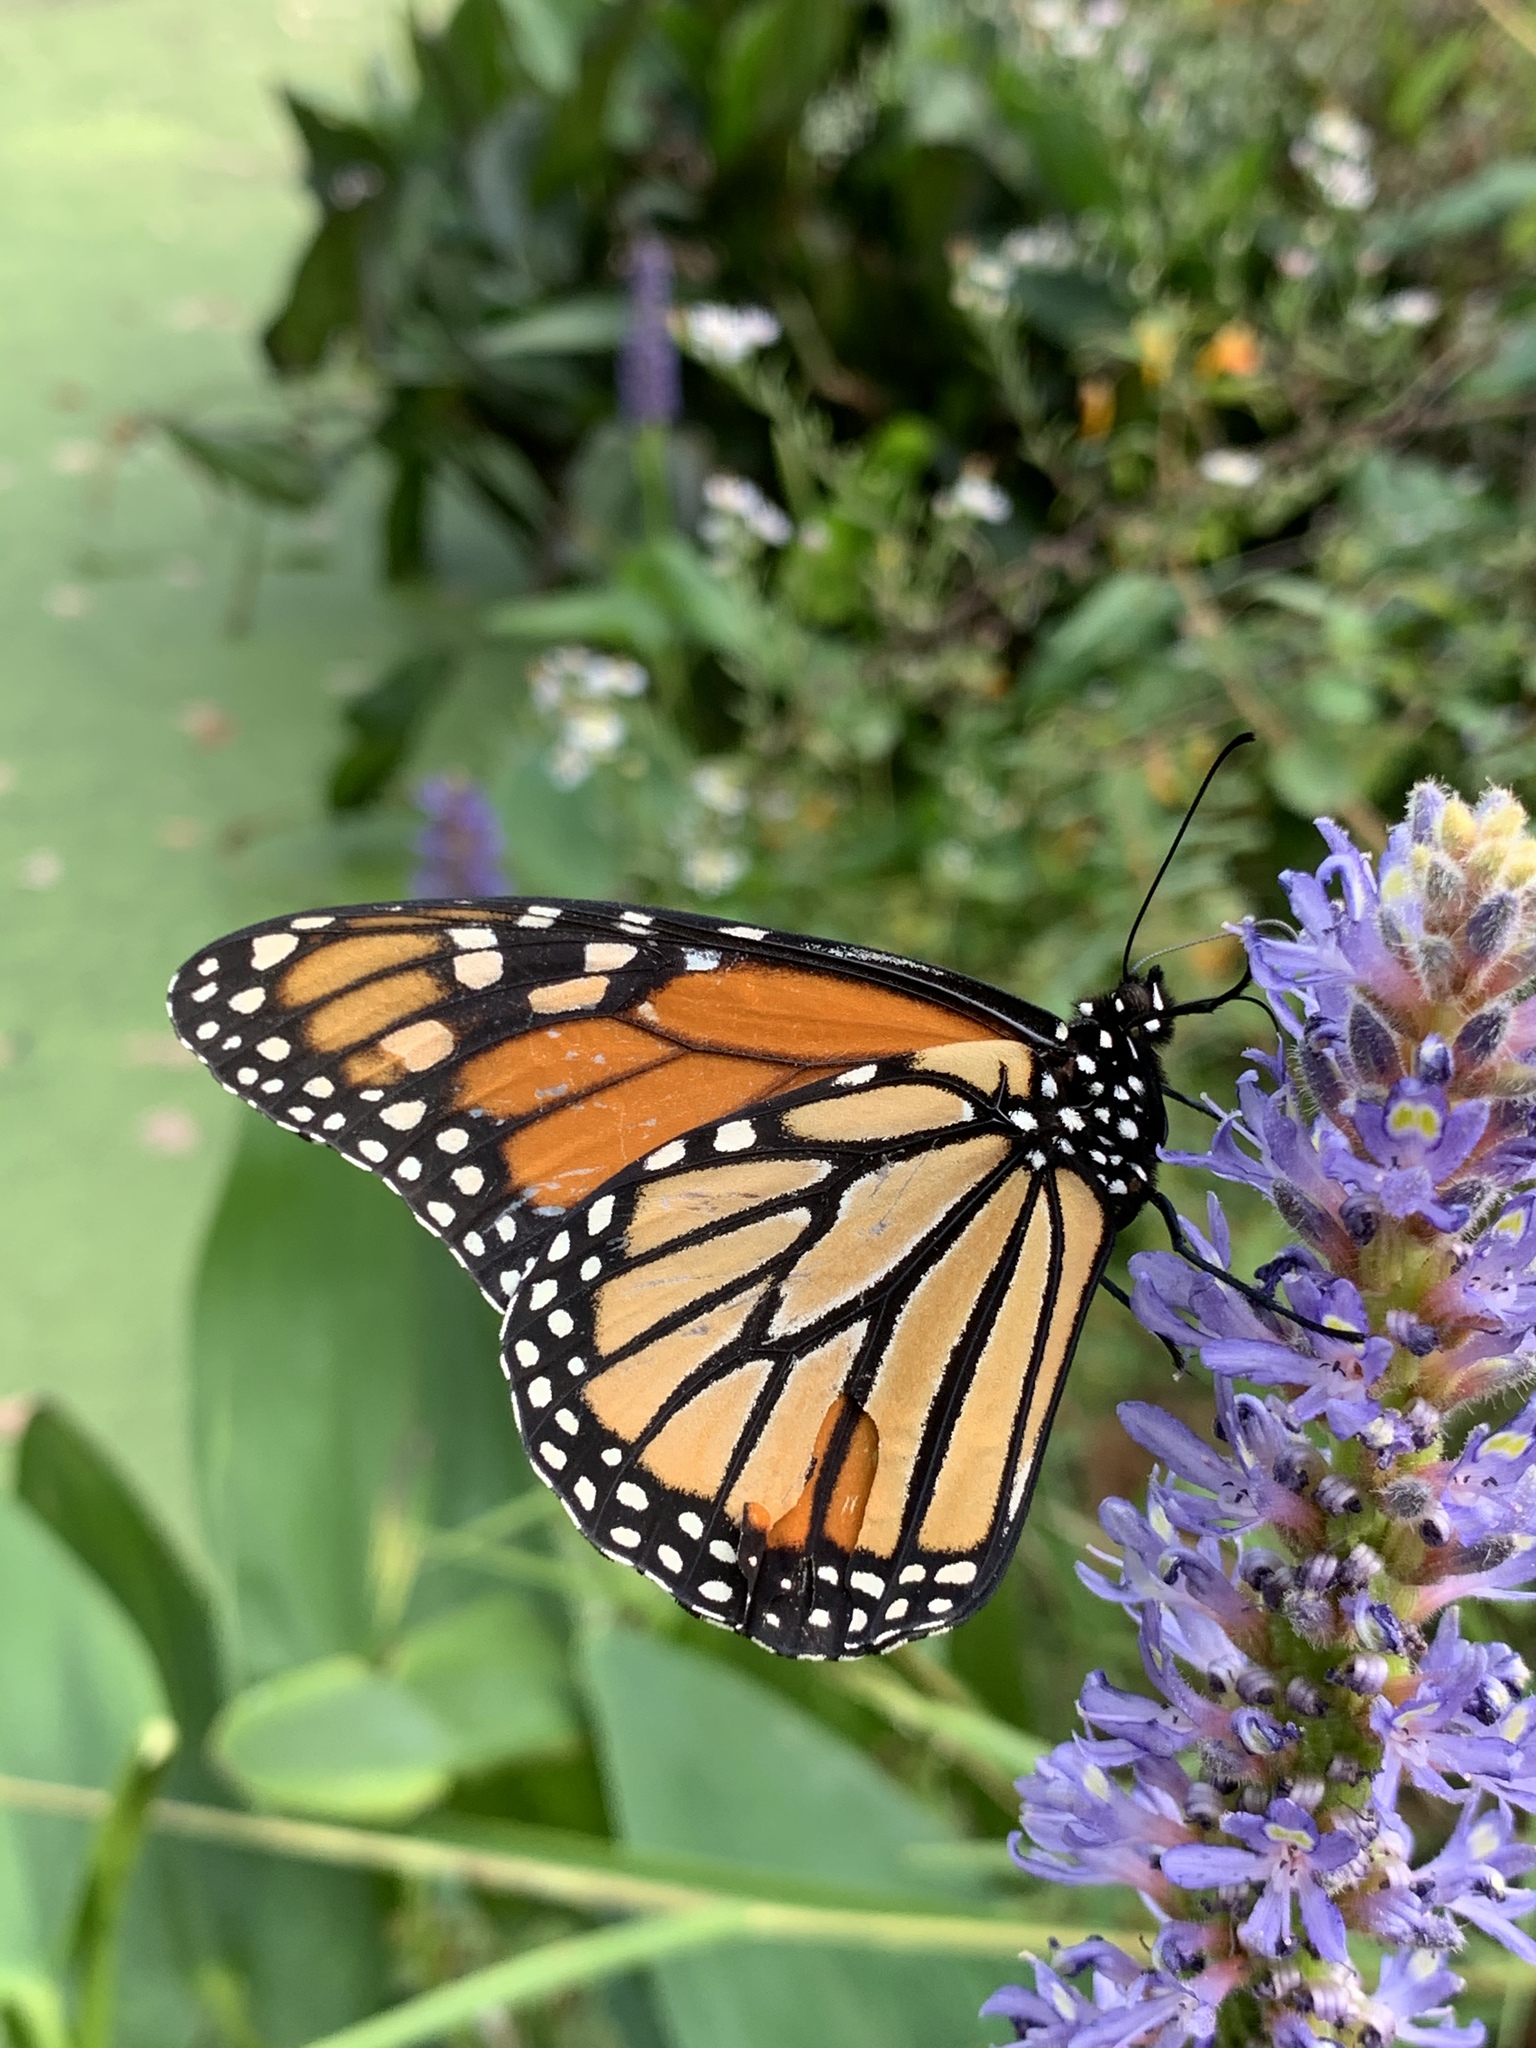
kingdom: Animalia
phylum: Arthropoda
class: Insecta
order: Lepidoptera
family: Nymphalidae
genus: Danaus
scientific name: Danaus plexippus
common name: Monarch
